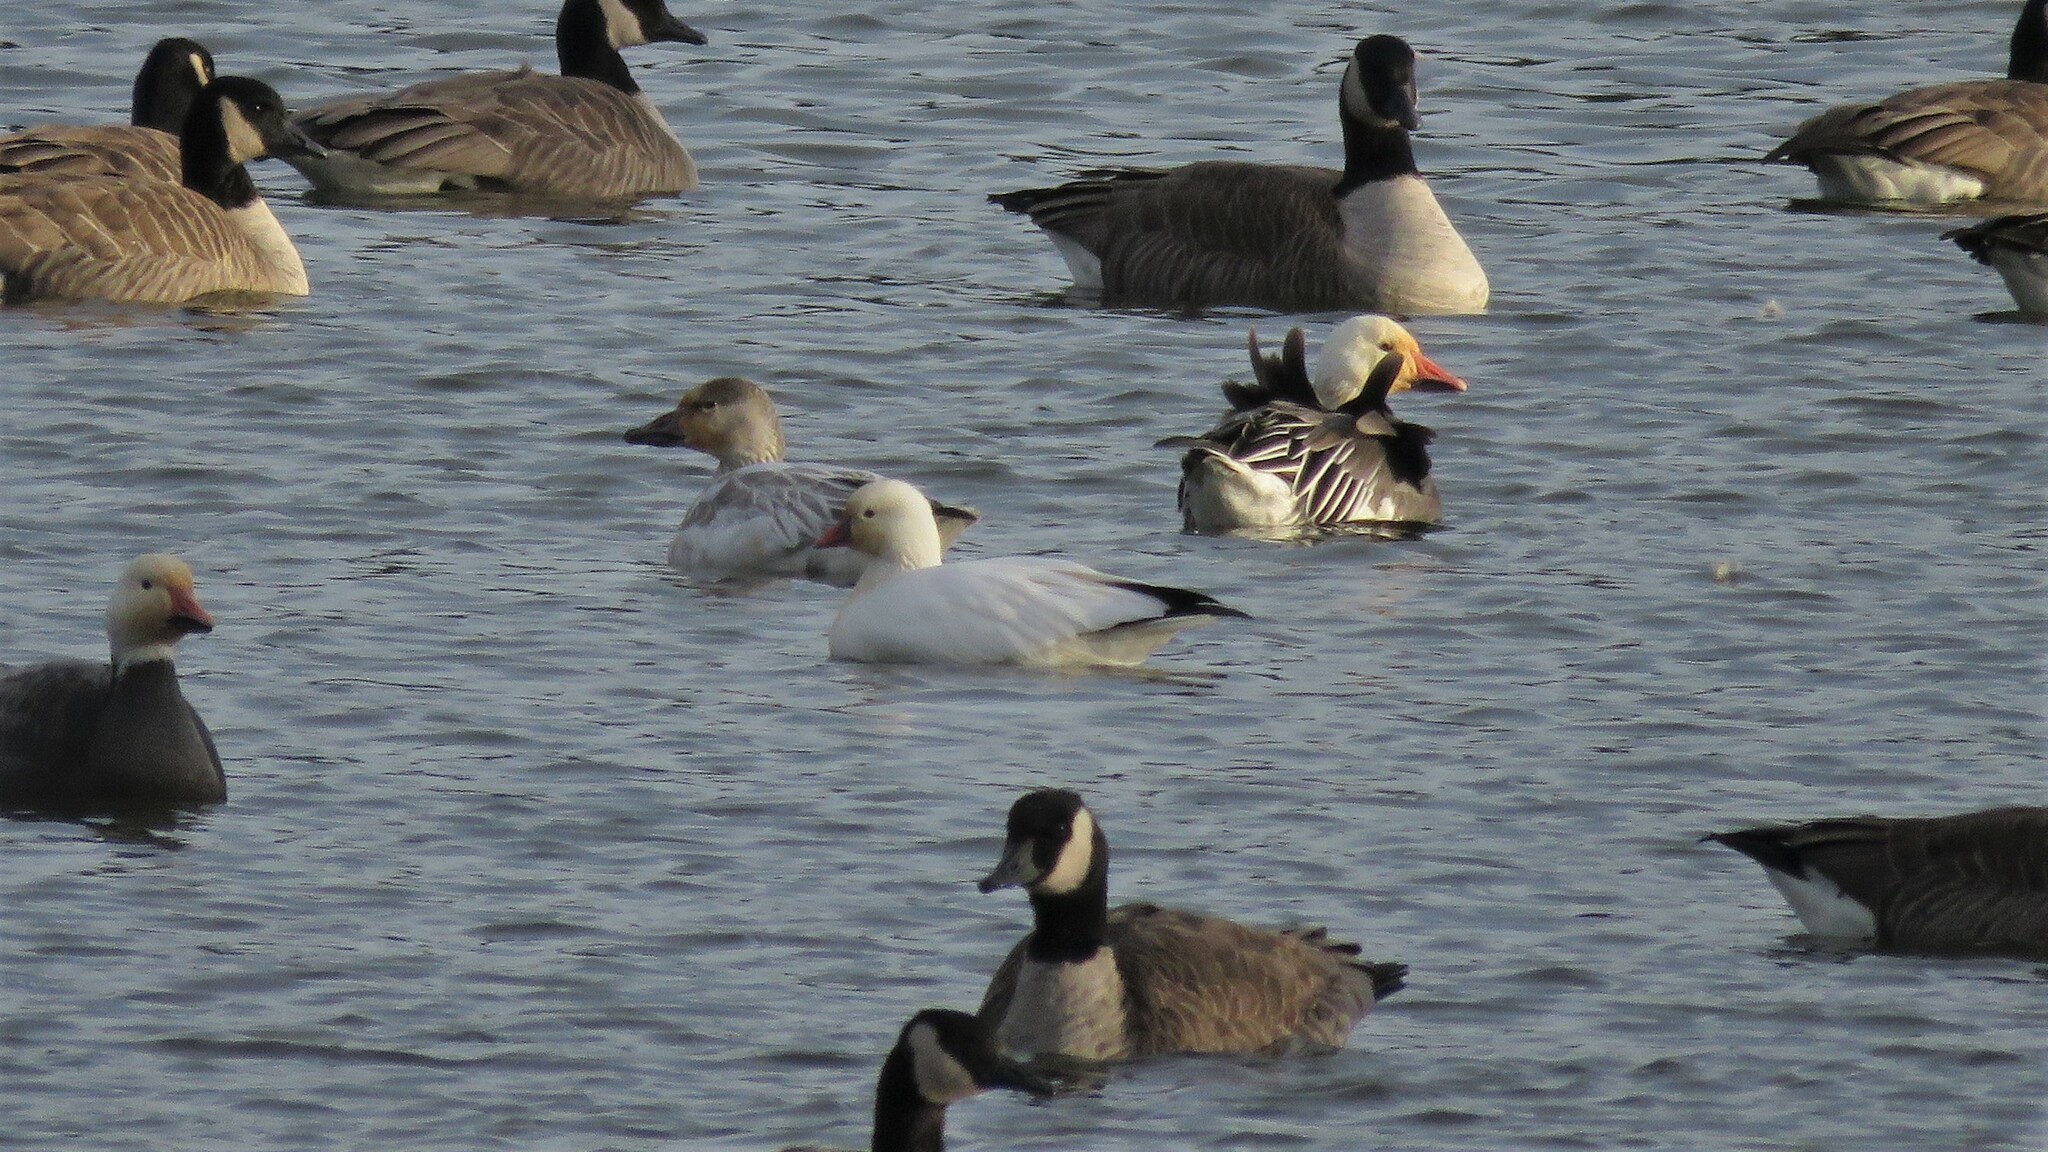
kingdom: Animalia
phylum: Chordata
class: Aves
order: Anseriformes
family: Anatidae
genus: Anser
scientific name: Anser rossii
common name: Ross's goose
